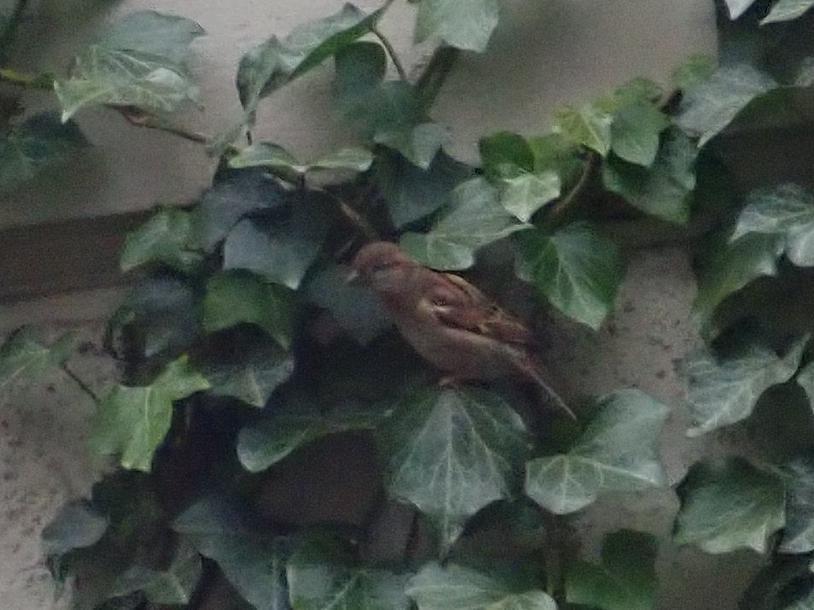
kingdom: Animalia
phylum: Chordata
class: Aves
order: Passeriformes
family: Passeridae
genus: Passer
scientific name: Passer domesticus
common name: House sparrow
